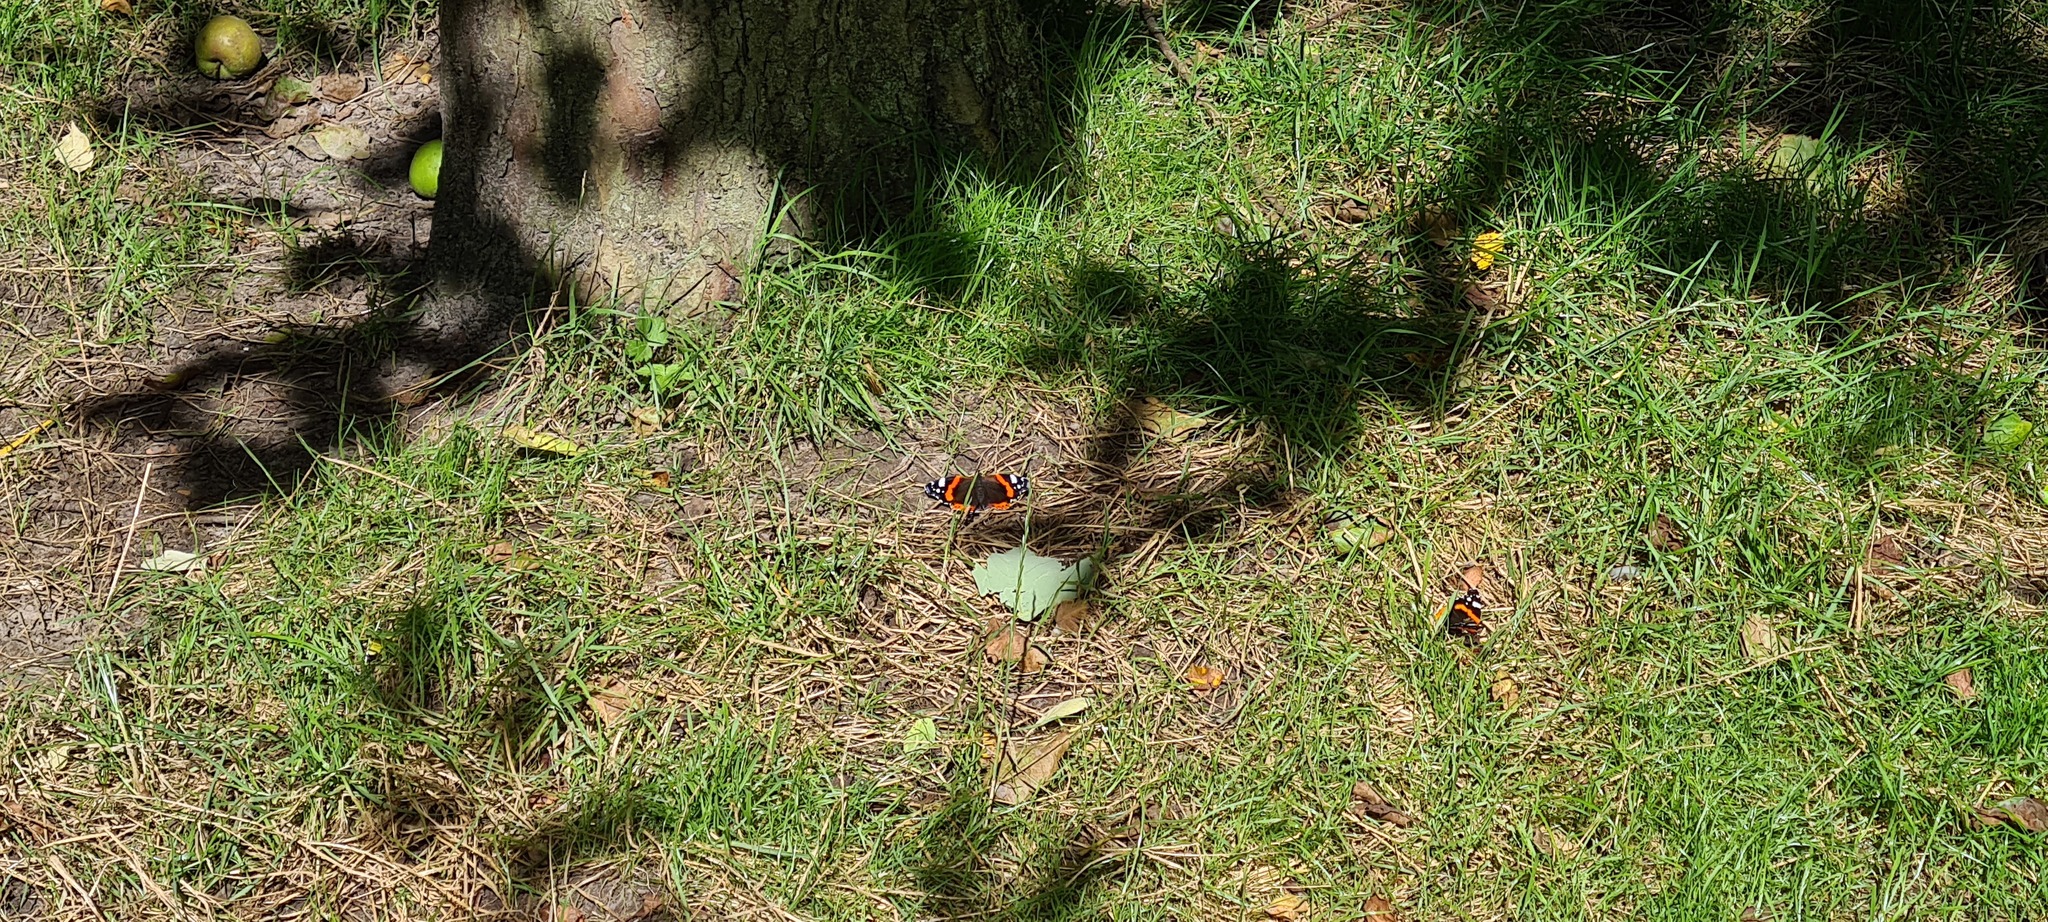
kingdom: Animalia
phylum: Arthropoda
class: Insecta
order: Lepidoptera
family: Nymphalidae
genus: Vanessa
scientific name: Vanessa atalanta
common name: Red admiral
